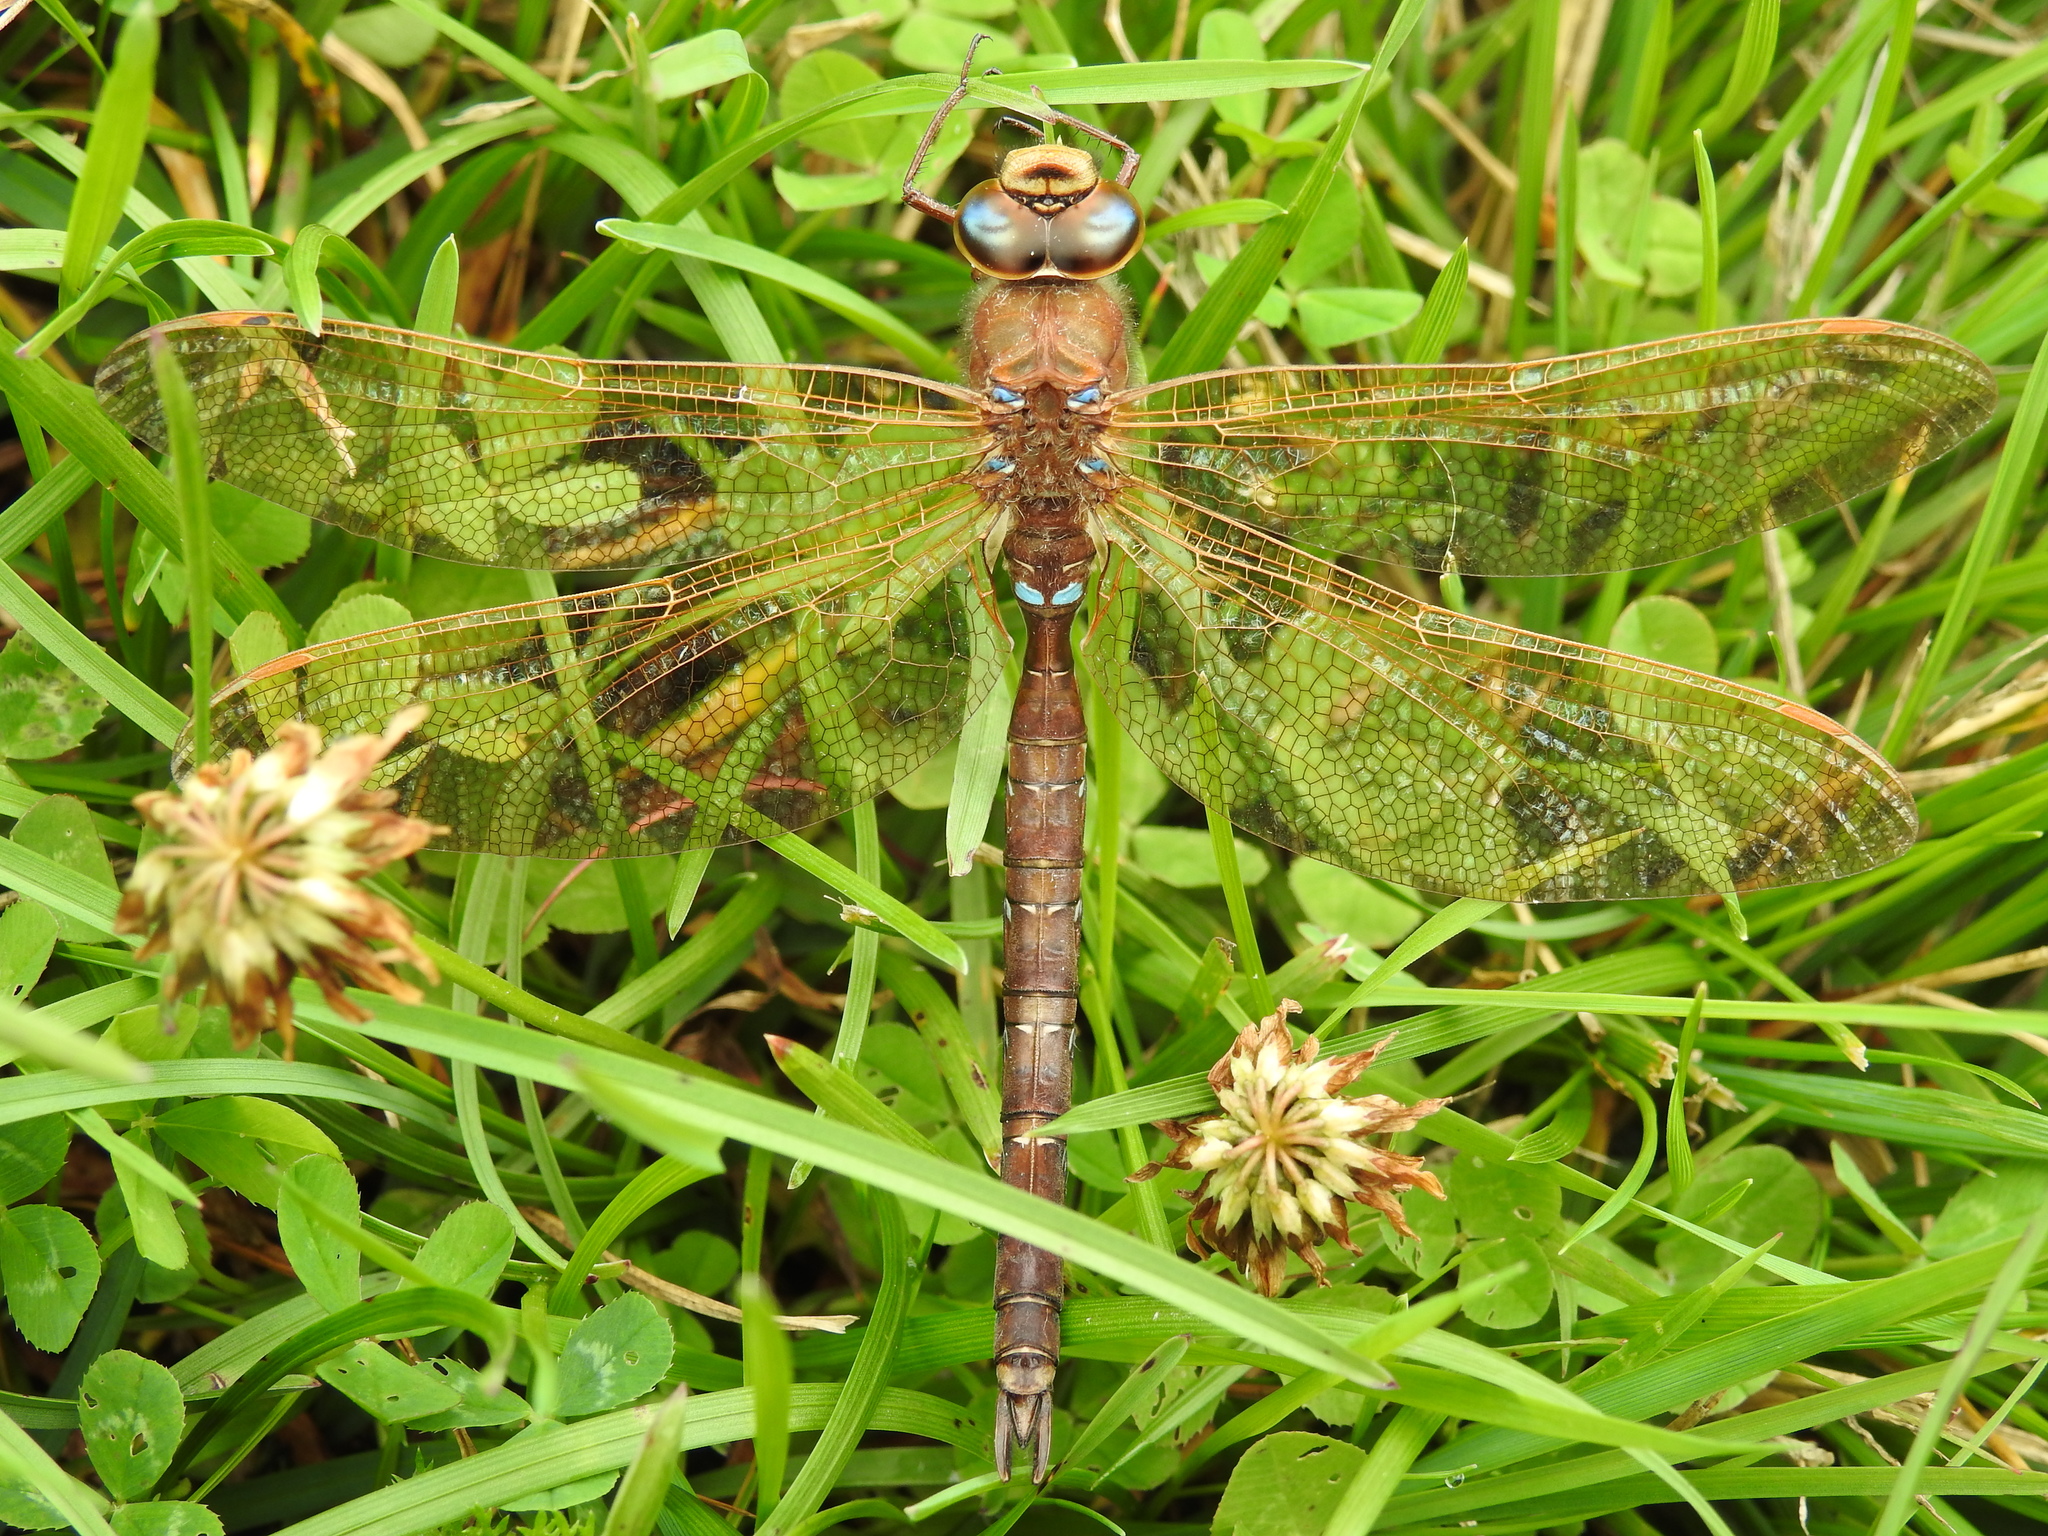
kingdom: Animalia
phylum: Arthropoda
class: Insecta
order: Odonata
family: Aeshnidae
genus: Aeshna
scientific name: Aeshna grandis
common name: Brown hawker
